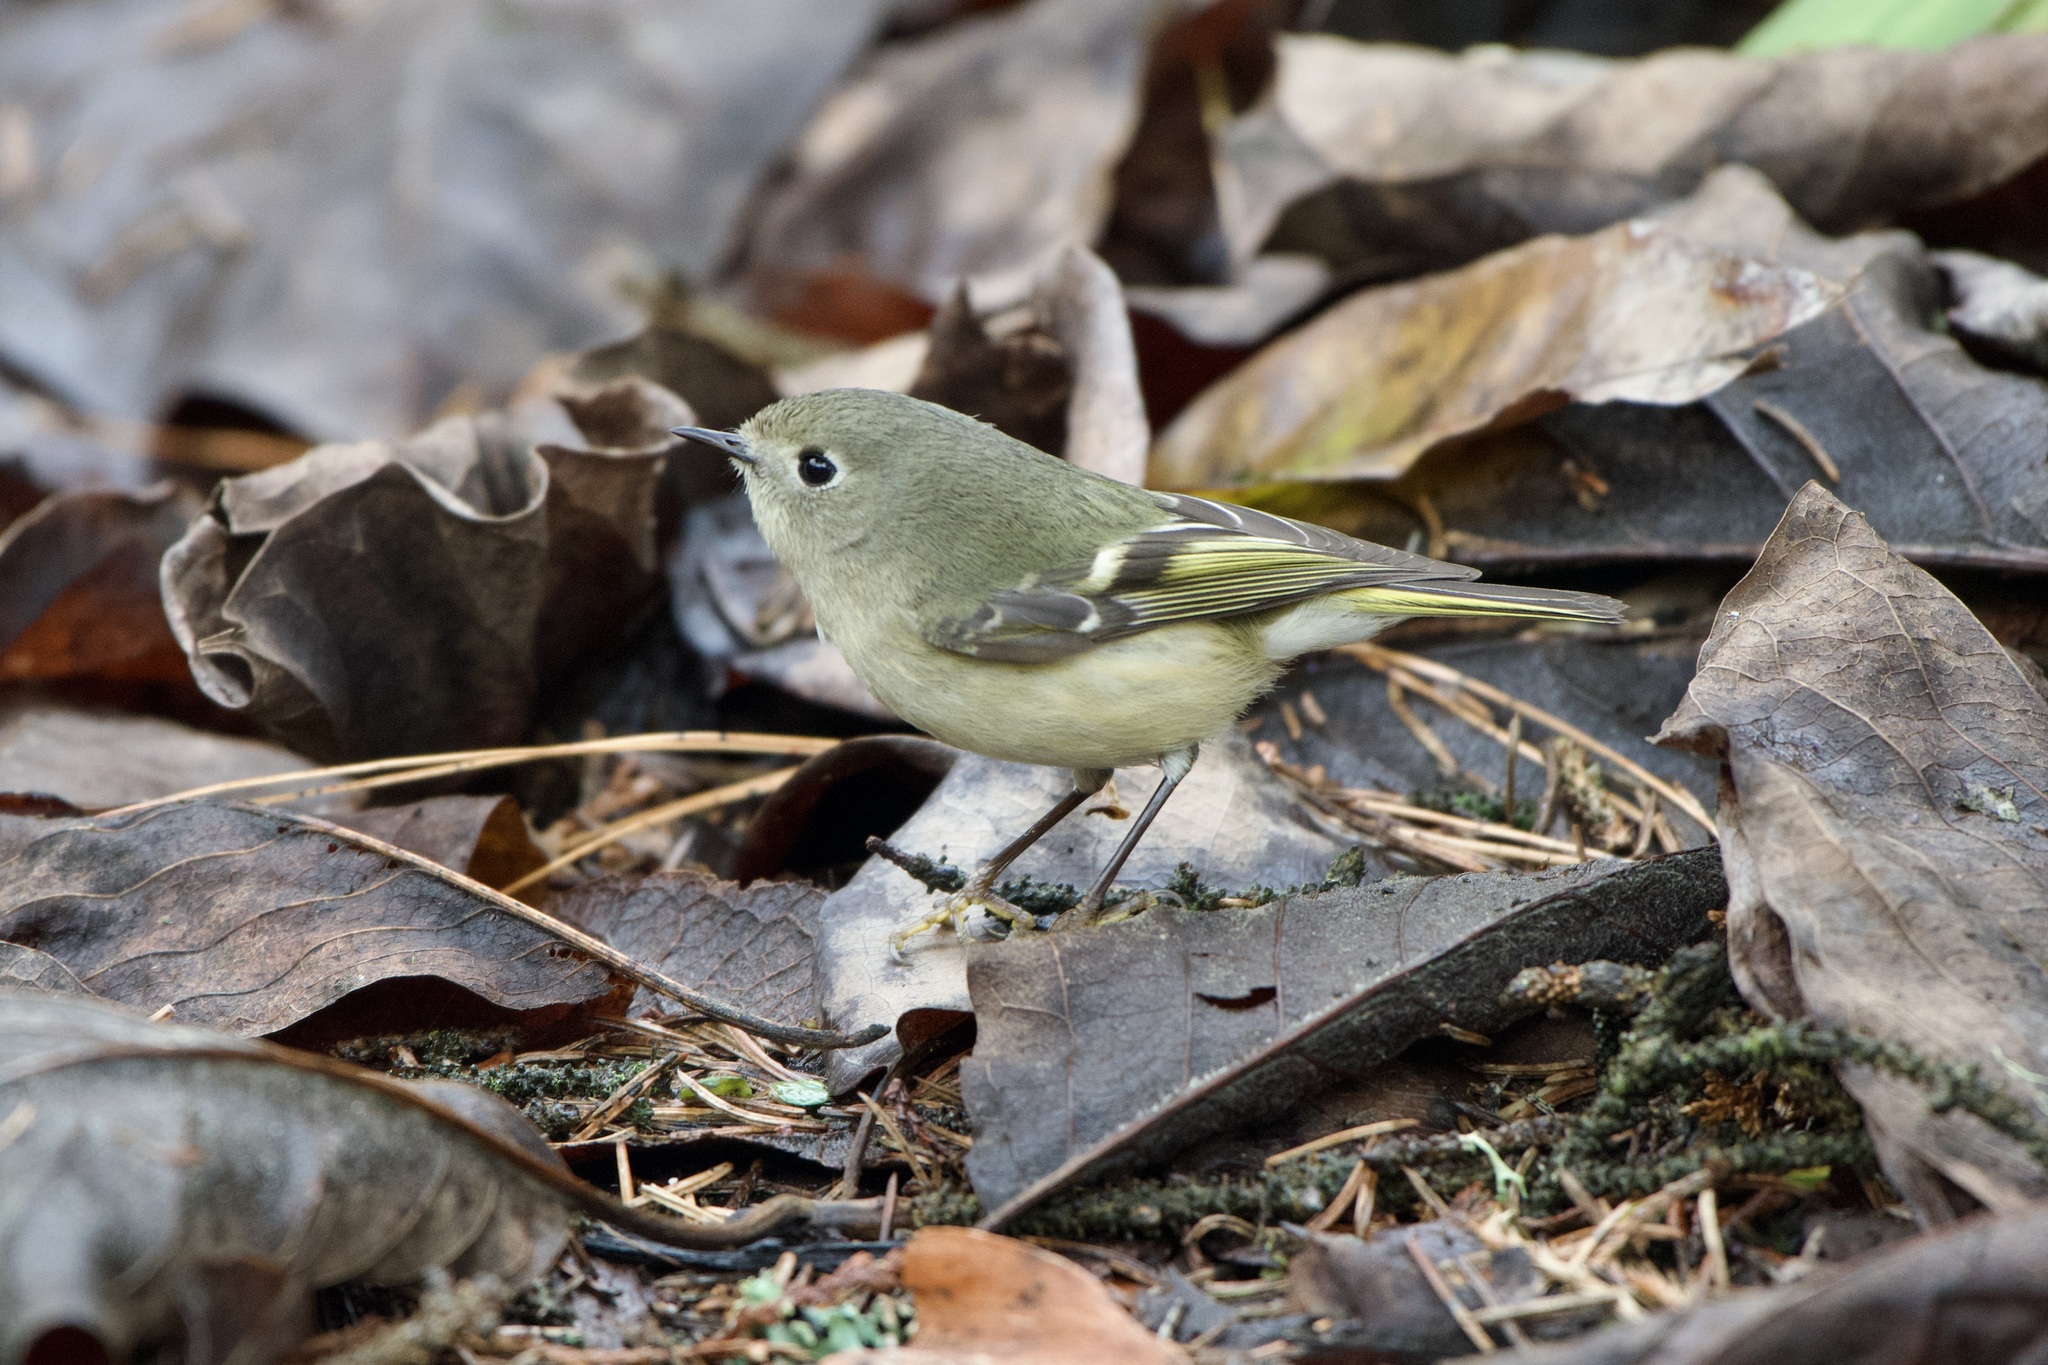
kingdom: Animalia
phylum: Chordata
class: Aves
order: Passeriformes
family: Regulidae
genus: Regulus
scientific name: Regulus calendula
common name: Ruby-crowned kinglet
